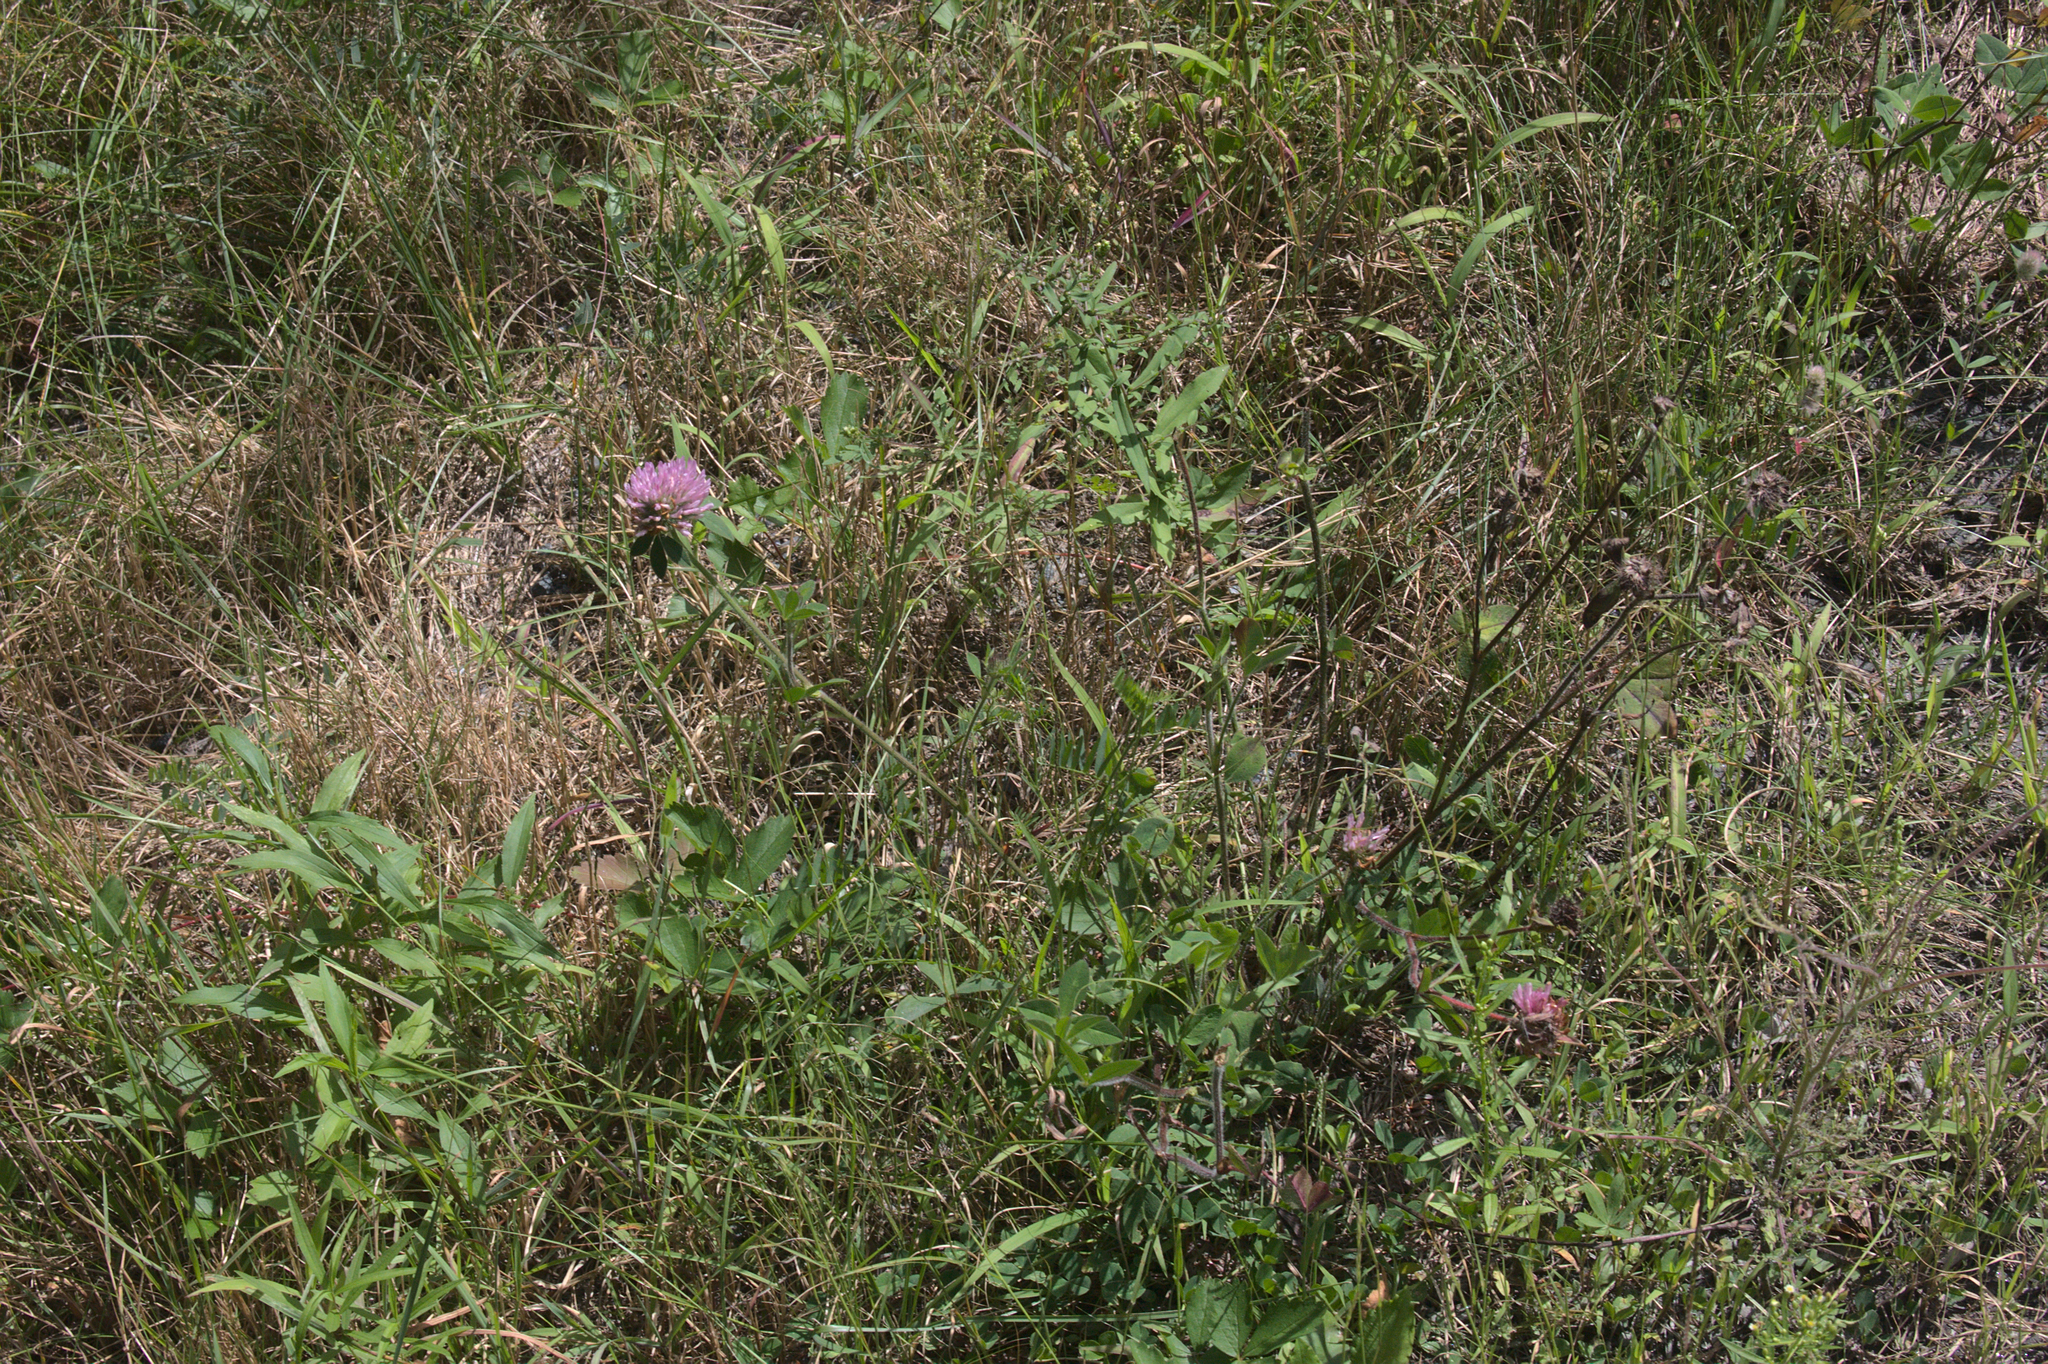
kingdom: Plantae
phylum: Tracheophyta
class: Magnoliopsida
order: Fabales
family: Fabaceae
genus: Trifolium
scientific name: Trifolium pratense
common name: Red clover
